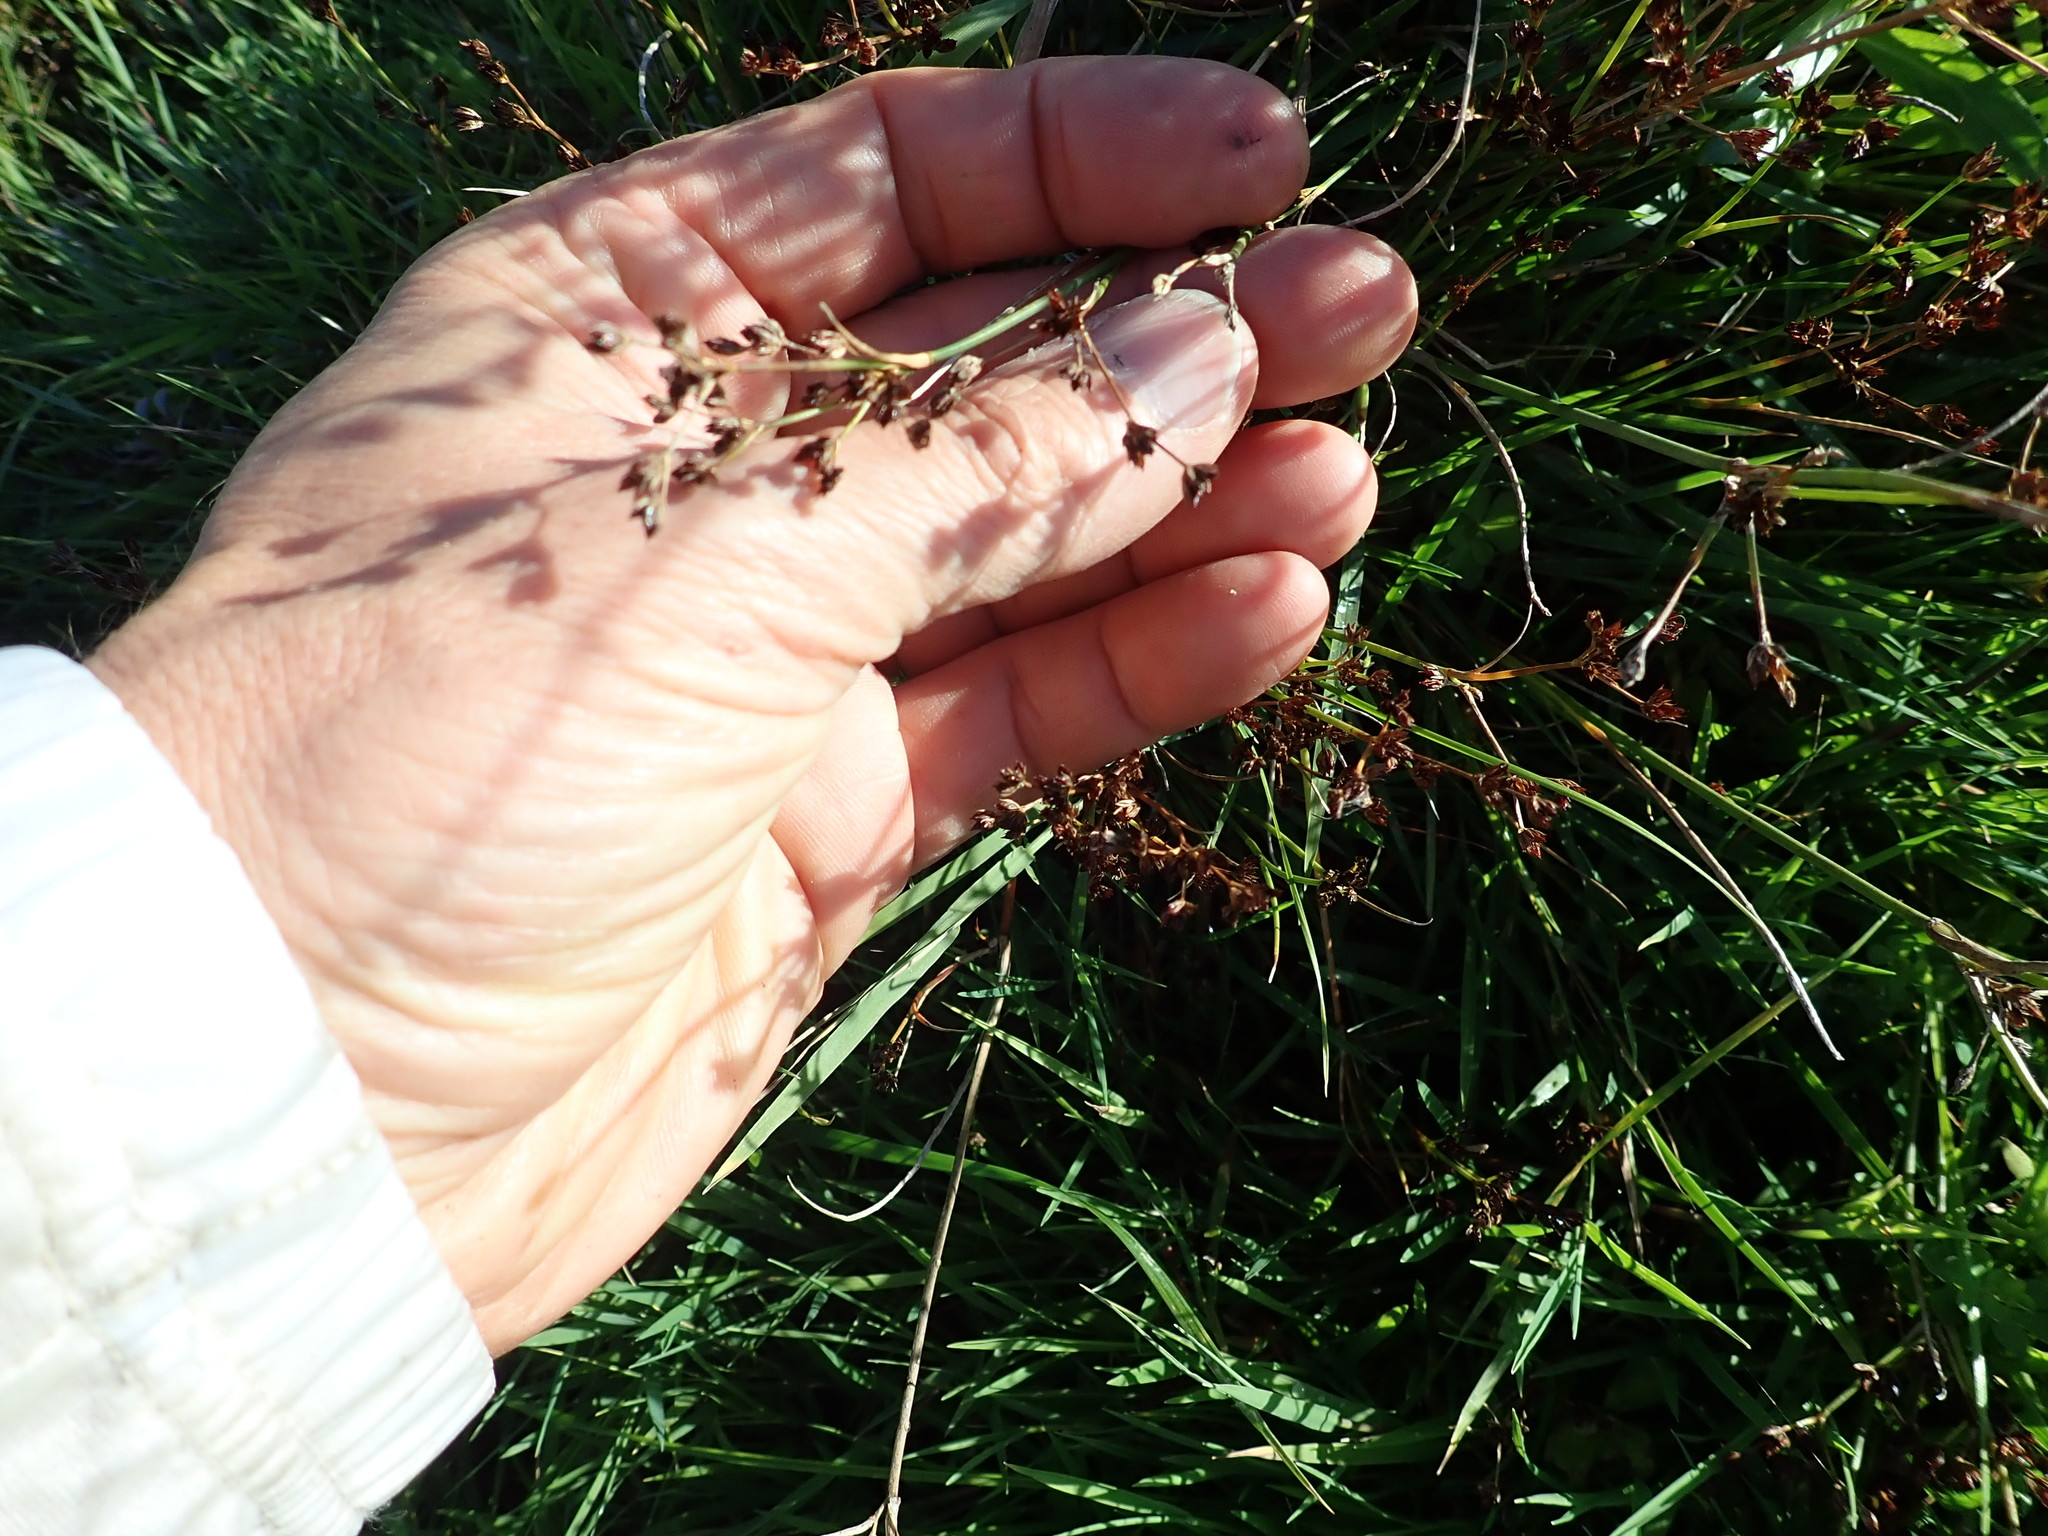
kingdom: Plantae
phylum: Tracheophyta
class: Liliopsida
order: Poales
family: Juncaceae
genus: Juncus
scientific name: Juncus articulatus
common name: Jointed rush
